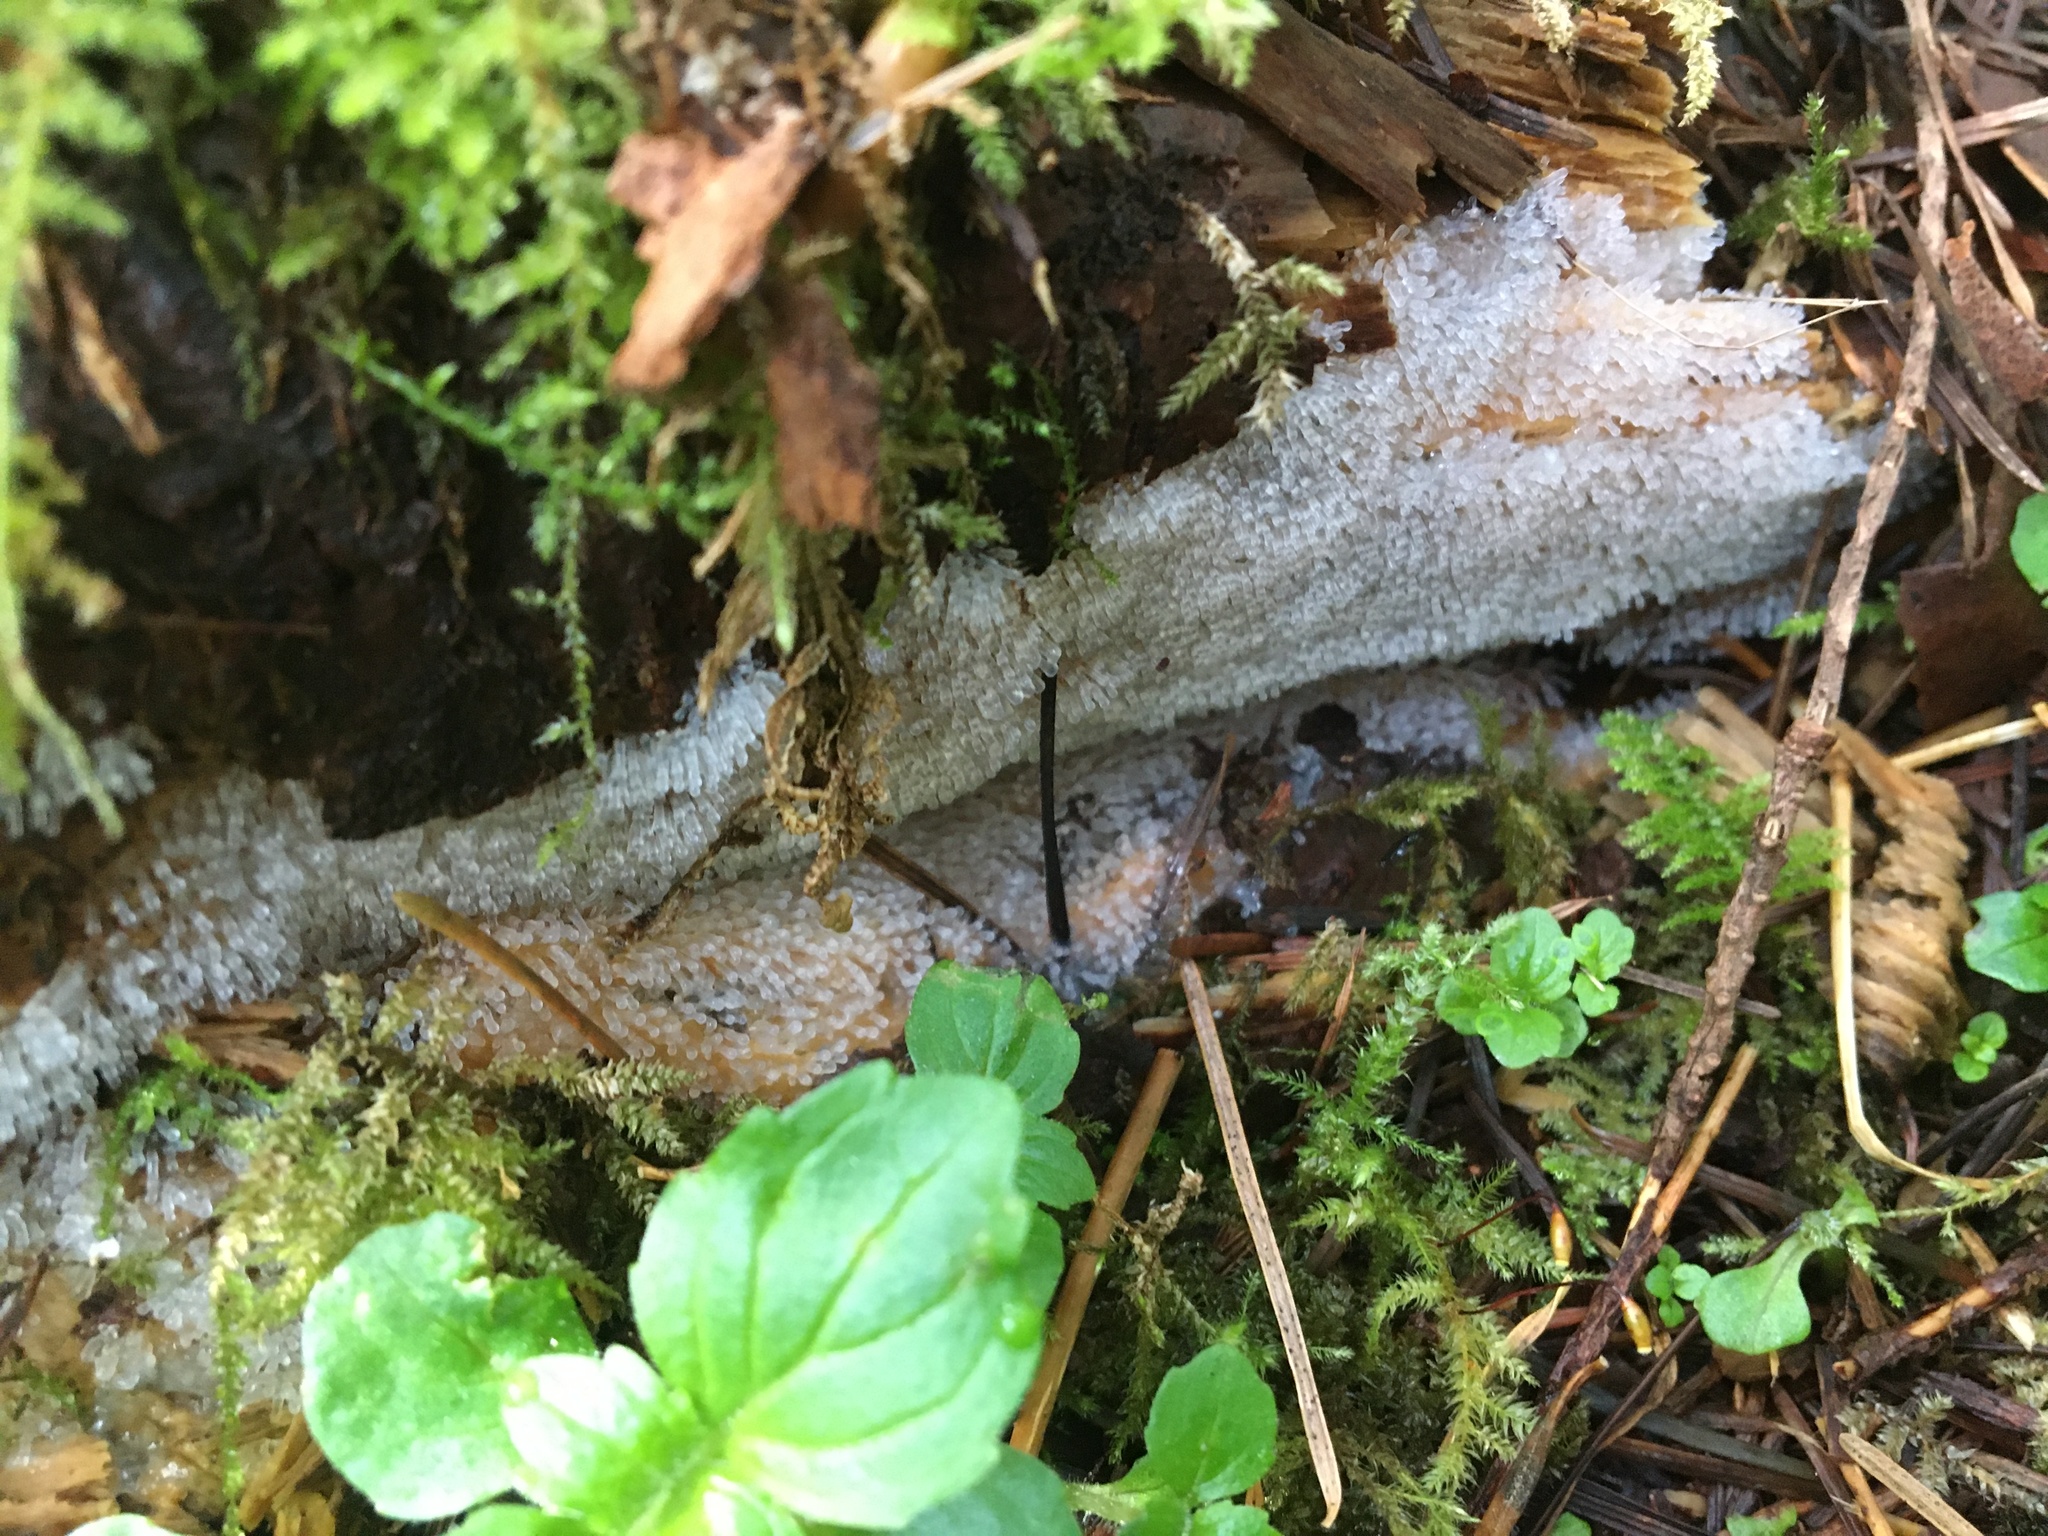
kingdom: Protozoa
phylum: Mycetozoa
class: Protosteliomycetes
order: Ceratiomyxales
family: Ceratiomyxaceae
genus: Ceratiomyxa
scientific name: Ceratiomyxa fruticulosa
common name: Honeycomb coral slime mold
